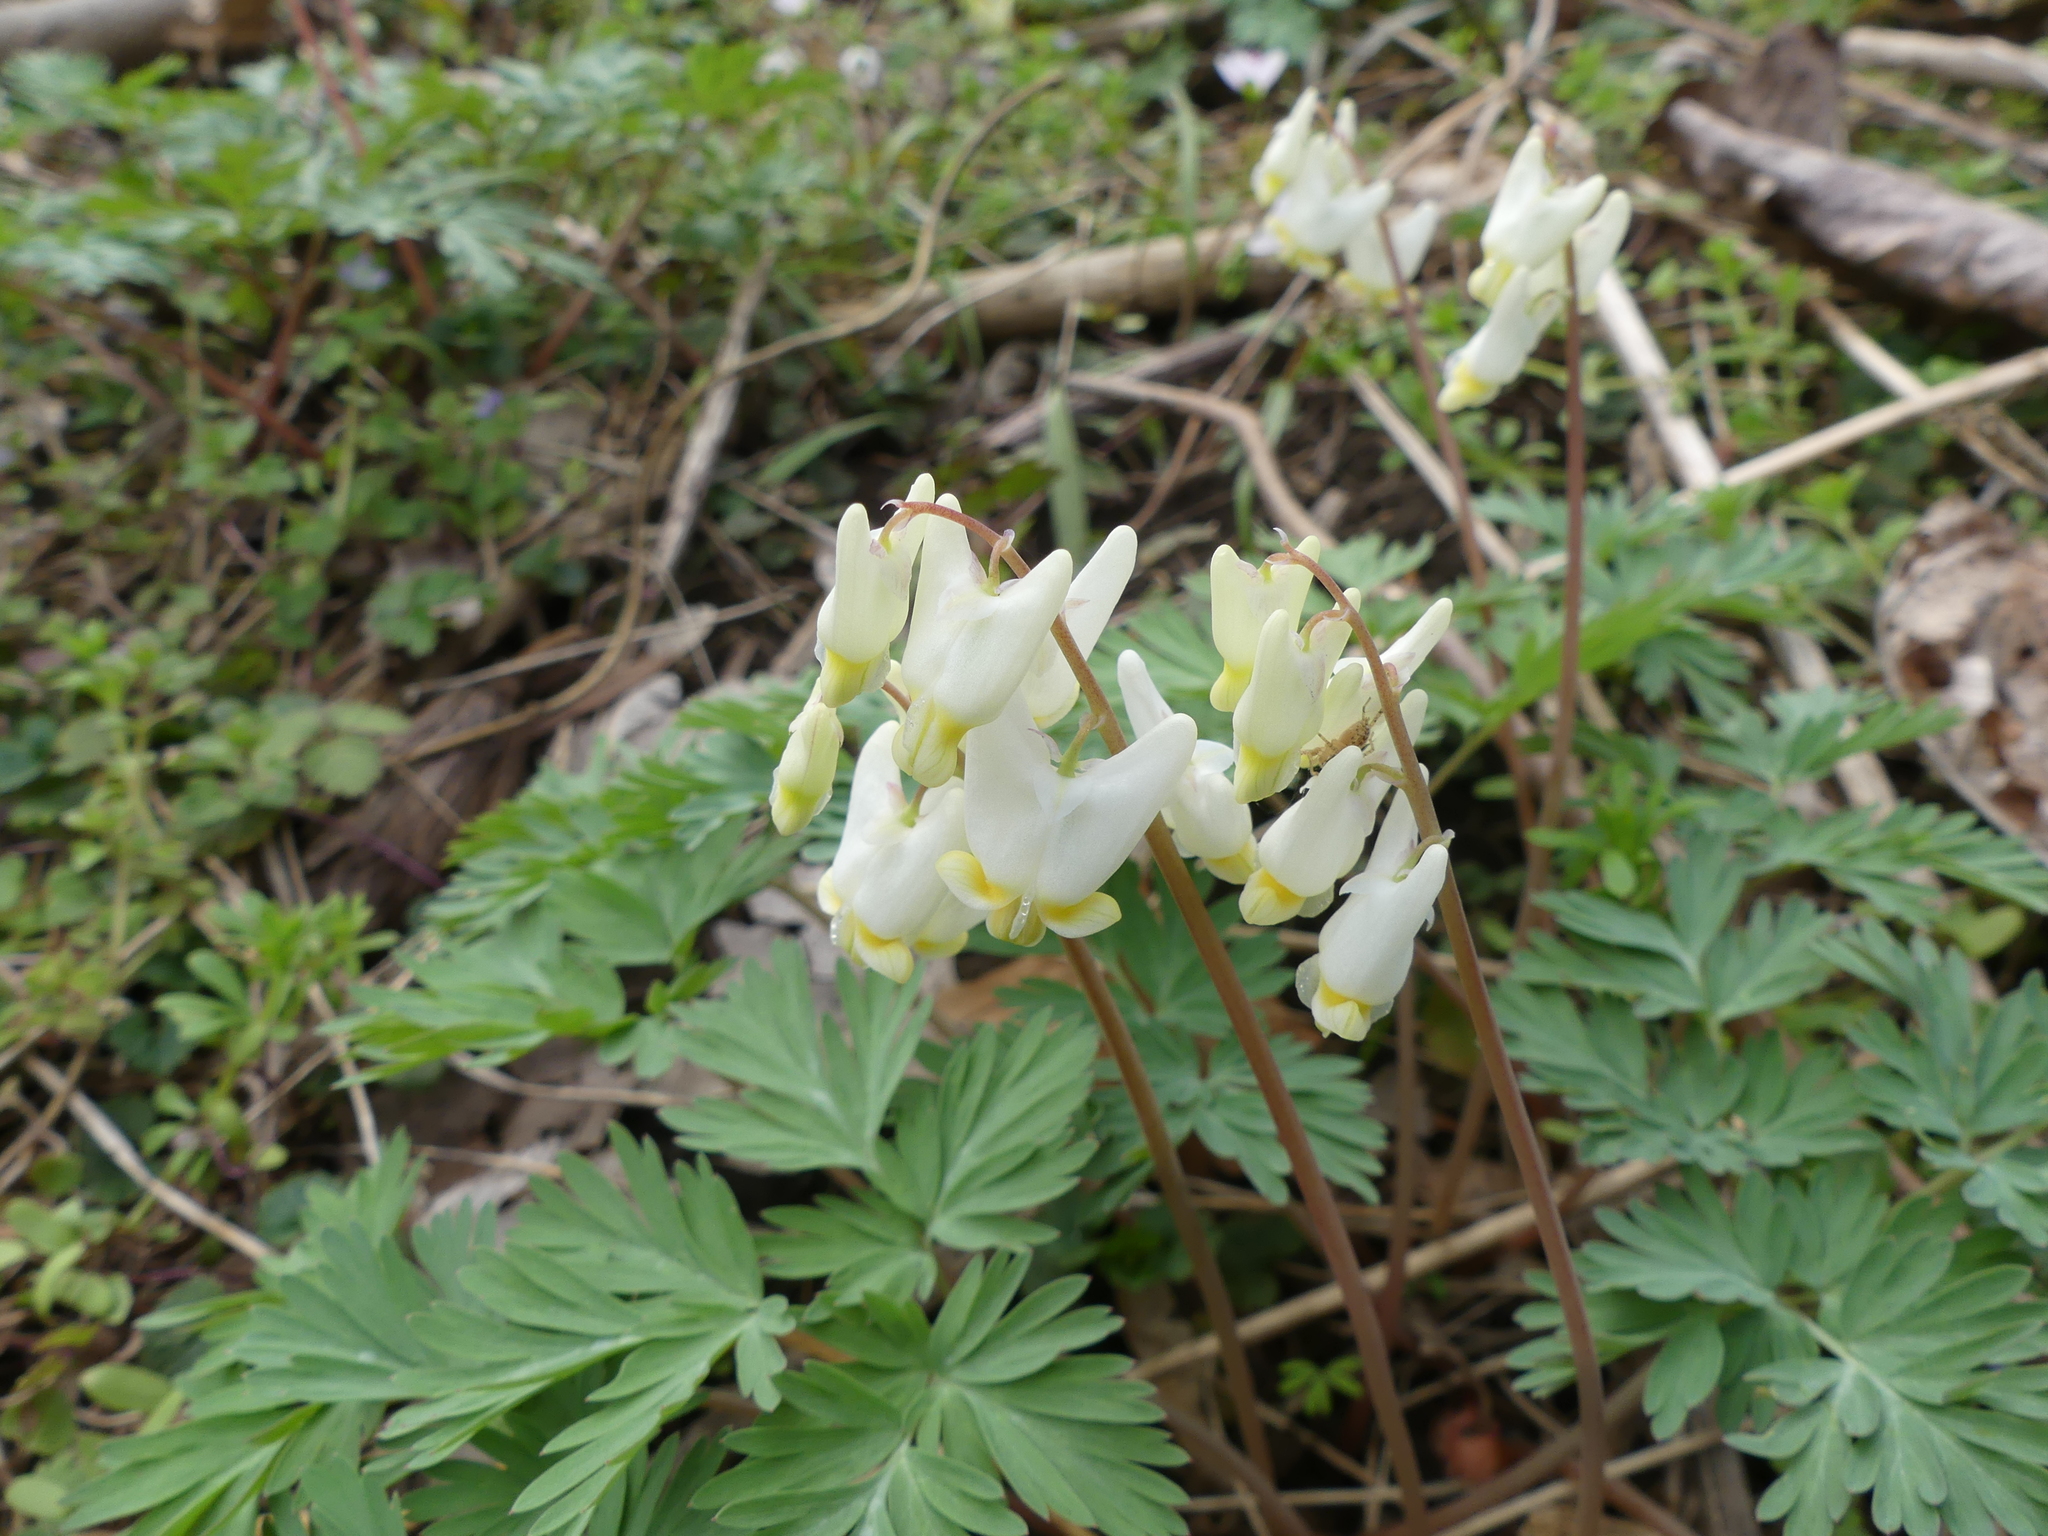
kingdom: Plantae
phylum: Tracheophyta
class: Magnoliopsida
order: Ranunculales
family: Papaveraceae
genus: Dicentra
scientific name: Dicentra cucullaria
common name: Dutchman's breeches
